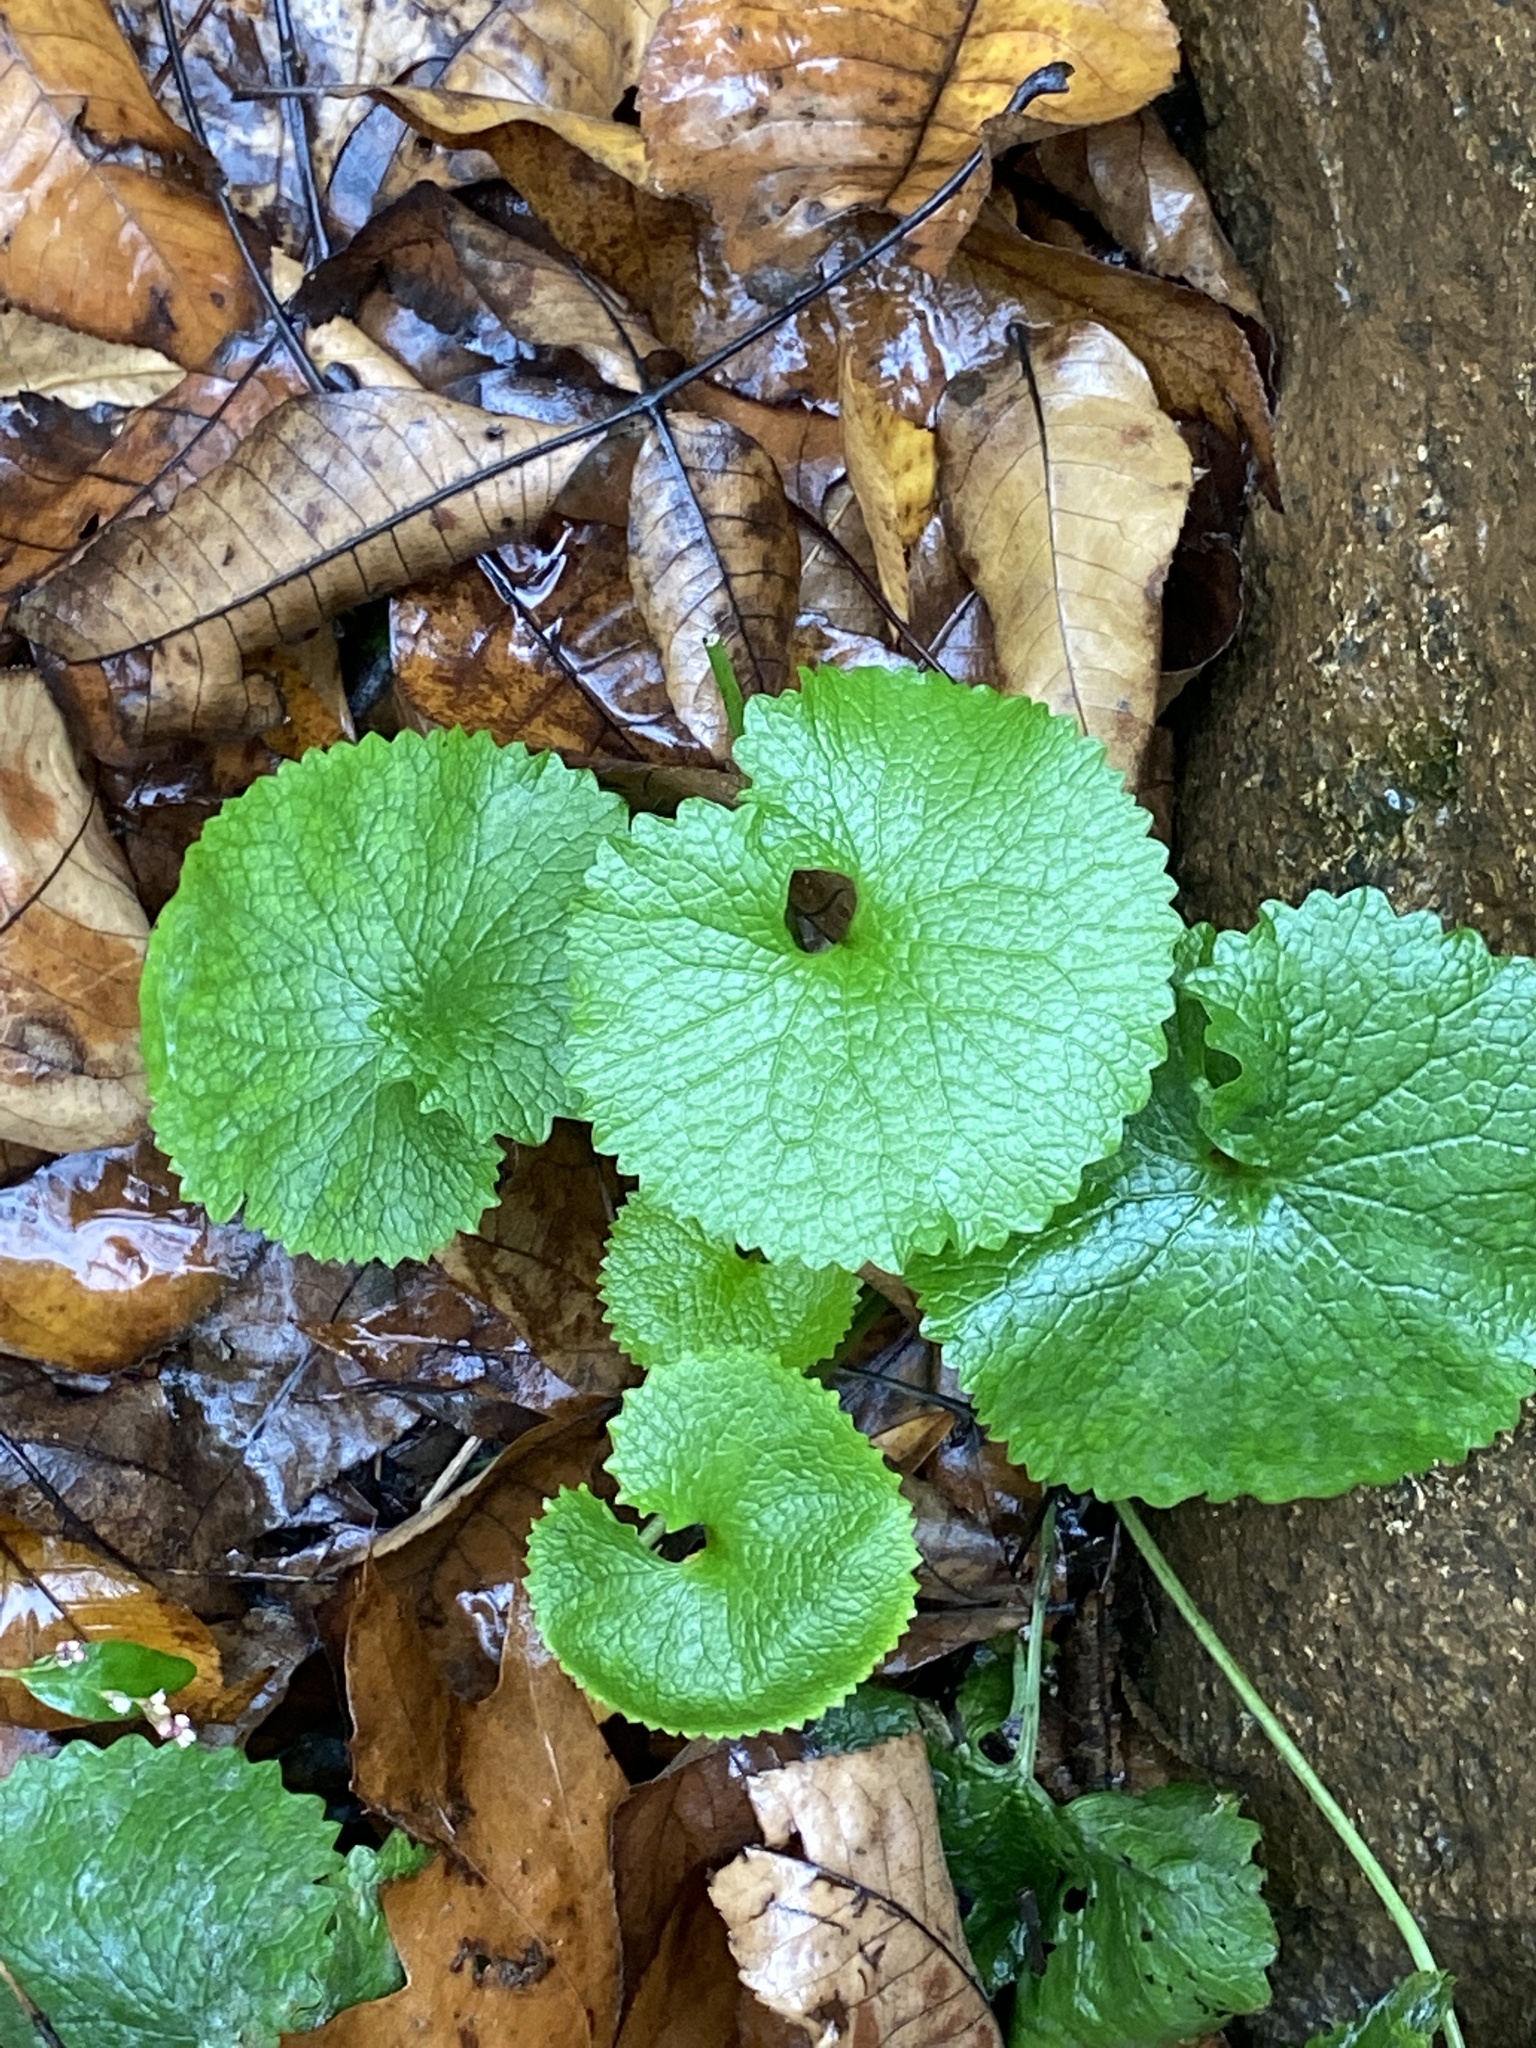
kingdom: Plantae
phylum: Tracheophyta
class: Magnoliopsida
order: Brassicales
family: Brassicaceae
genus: Alliaria
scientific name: Alliaria petiolata
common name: Garlic mustard
